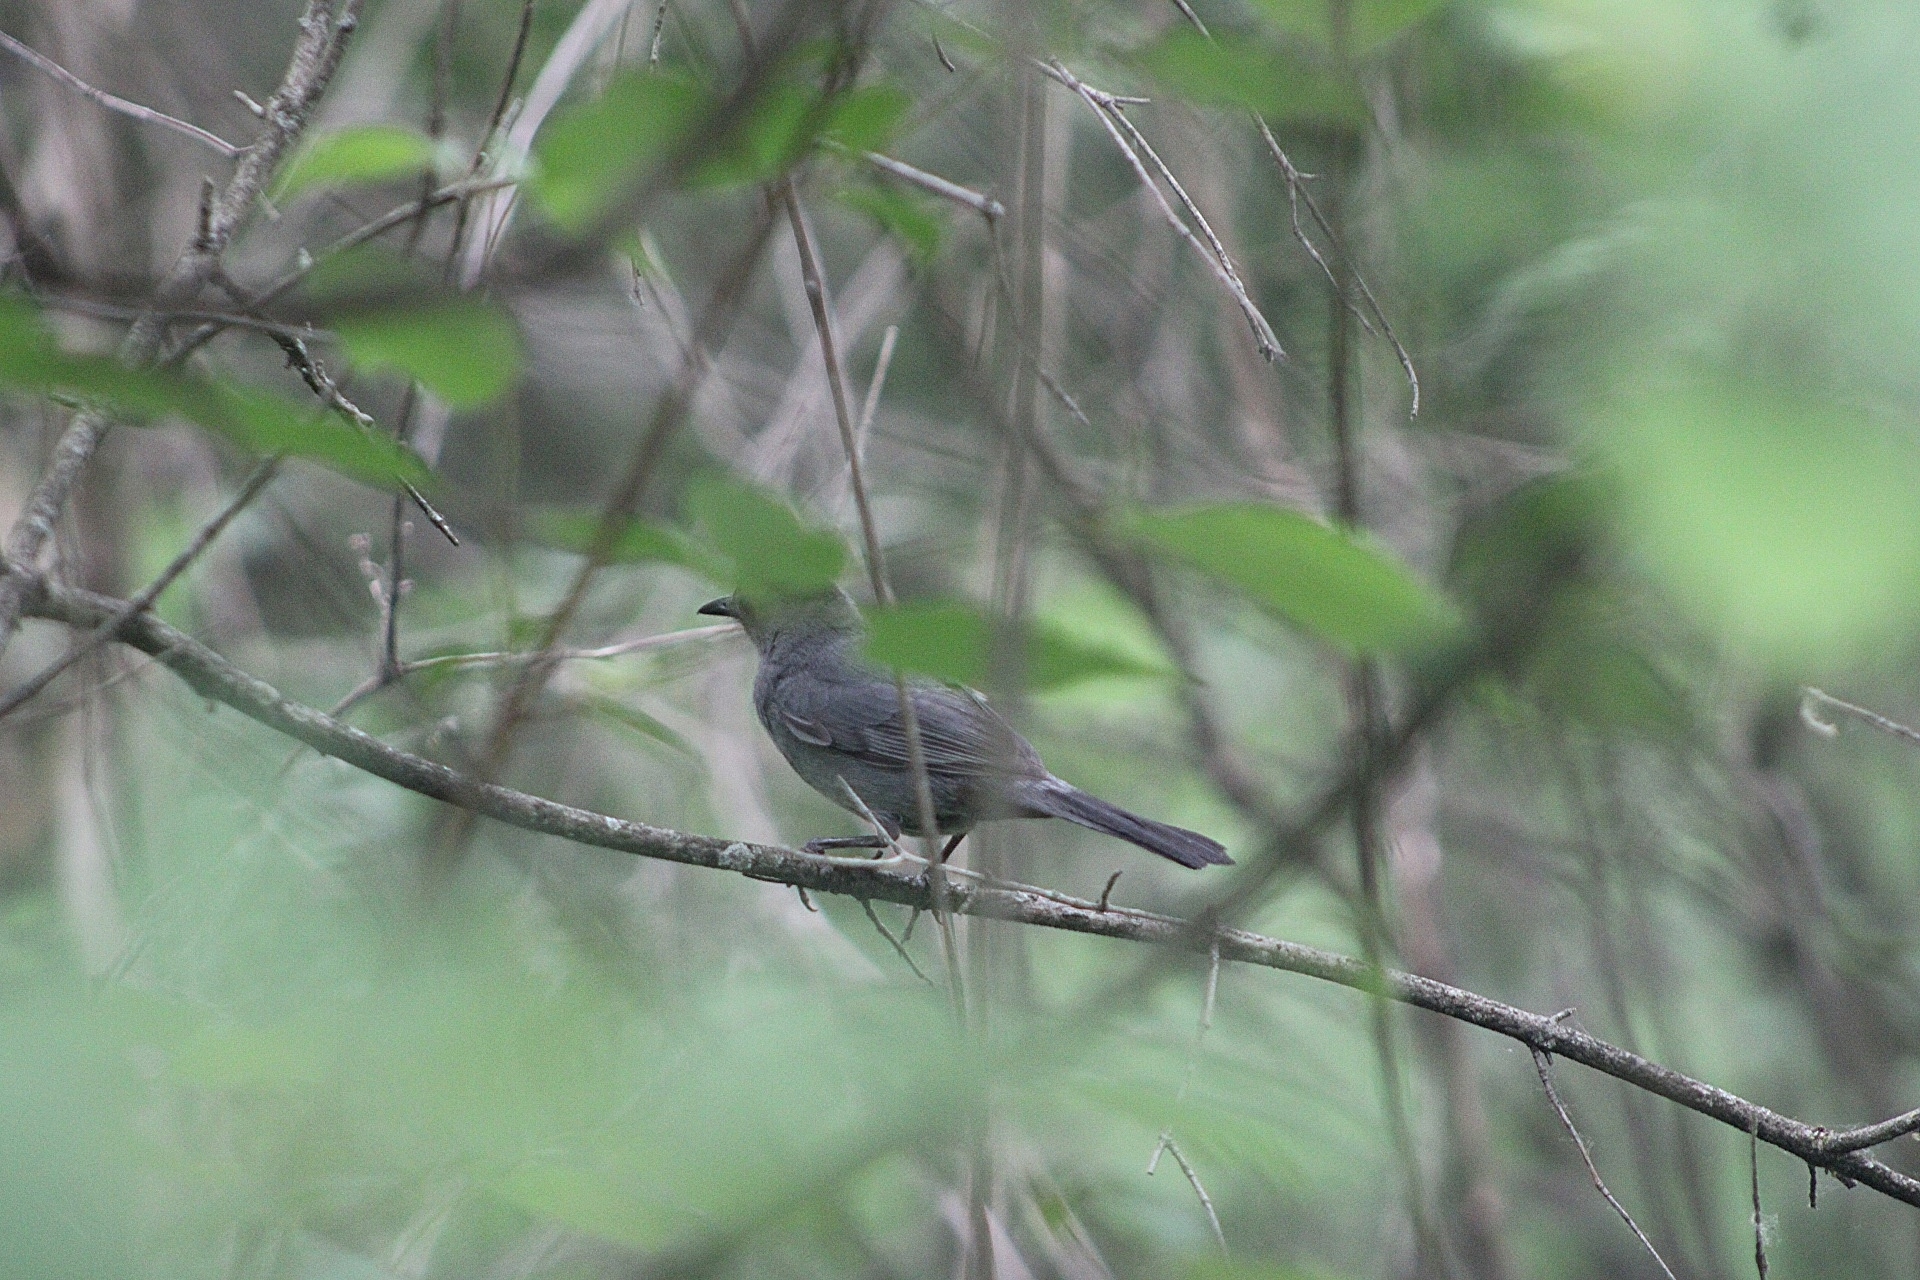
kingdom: Animalia
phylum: Chordata
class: Aves
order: Passeriformes
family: Mimidae
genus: Dumetella
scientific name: Dumetella carolinensis
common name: Gray catbird
